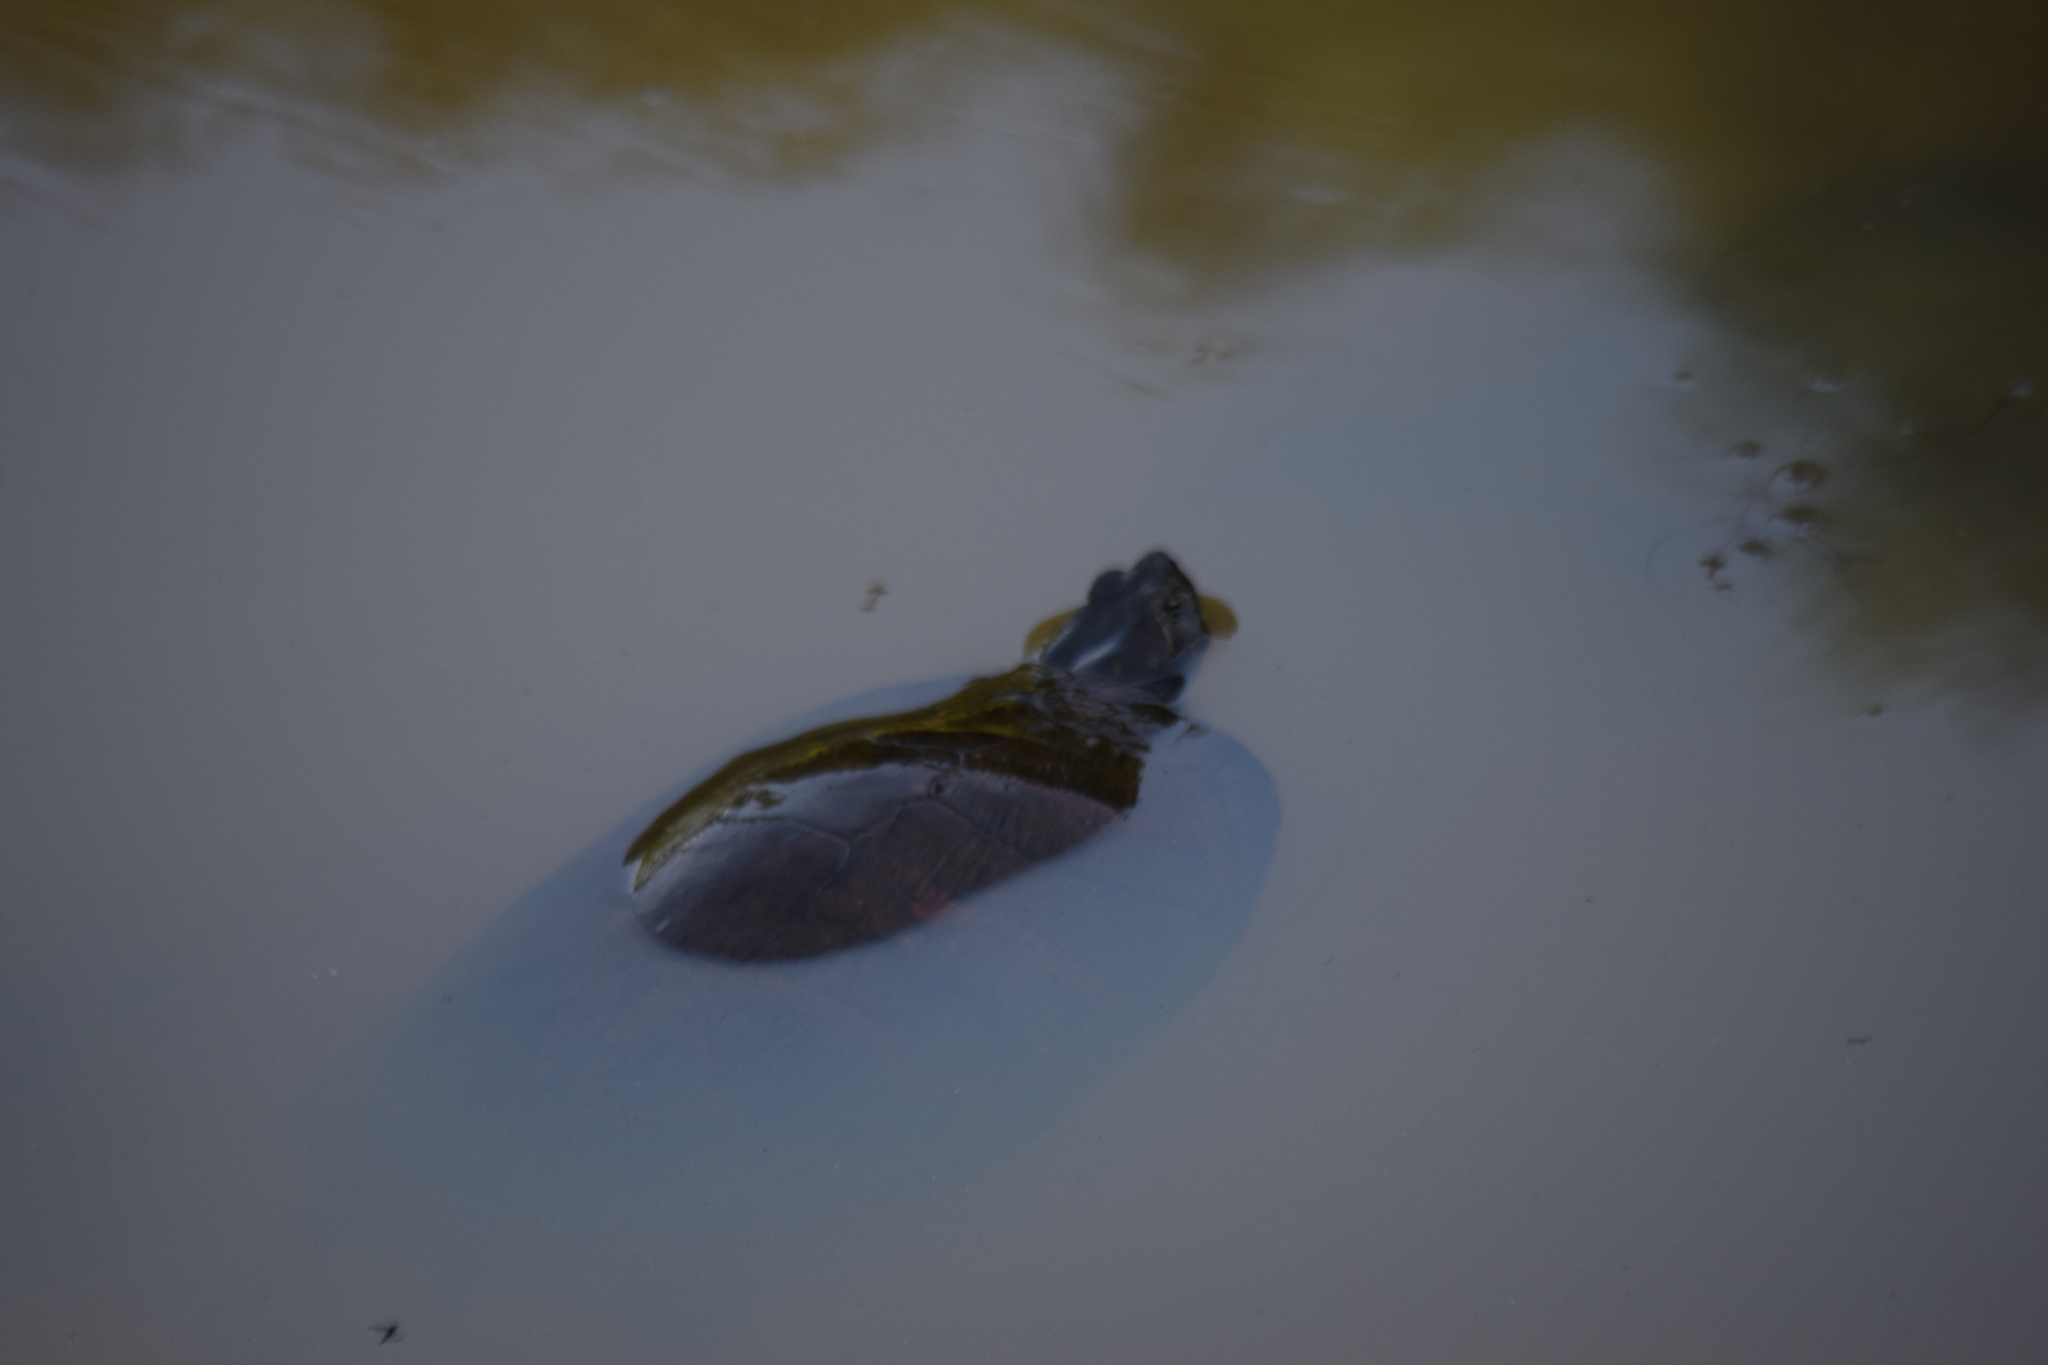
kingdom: Animalia
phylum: Chordata
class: Testudines
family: Emydidae
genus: Pseudemys
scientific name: Pseudemys rubriventris
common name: American red-bellied turtle
